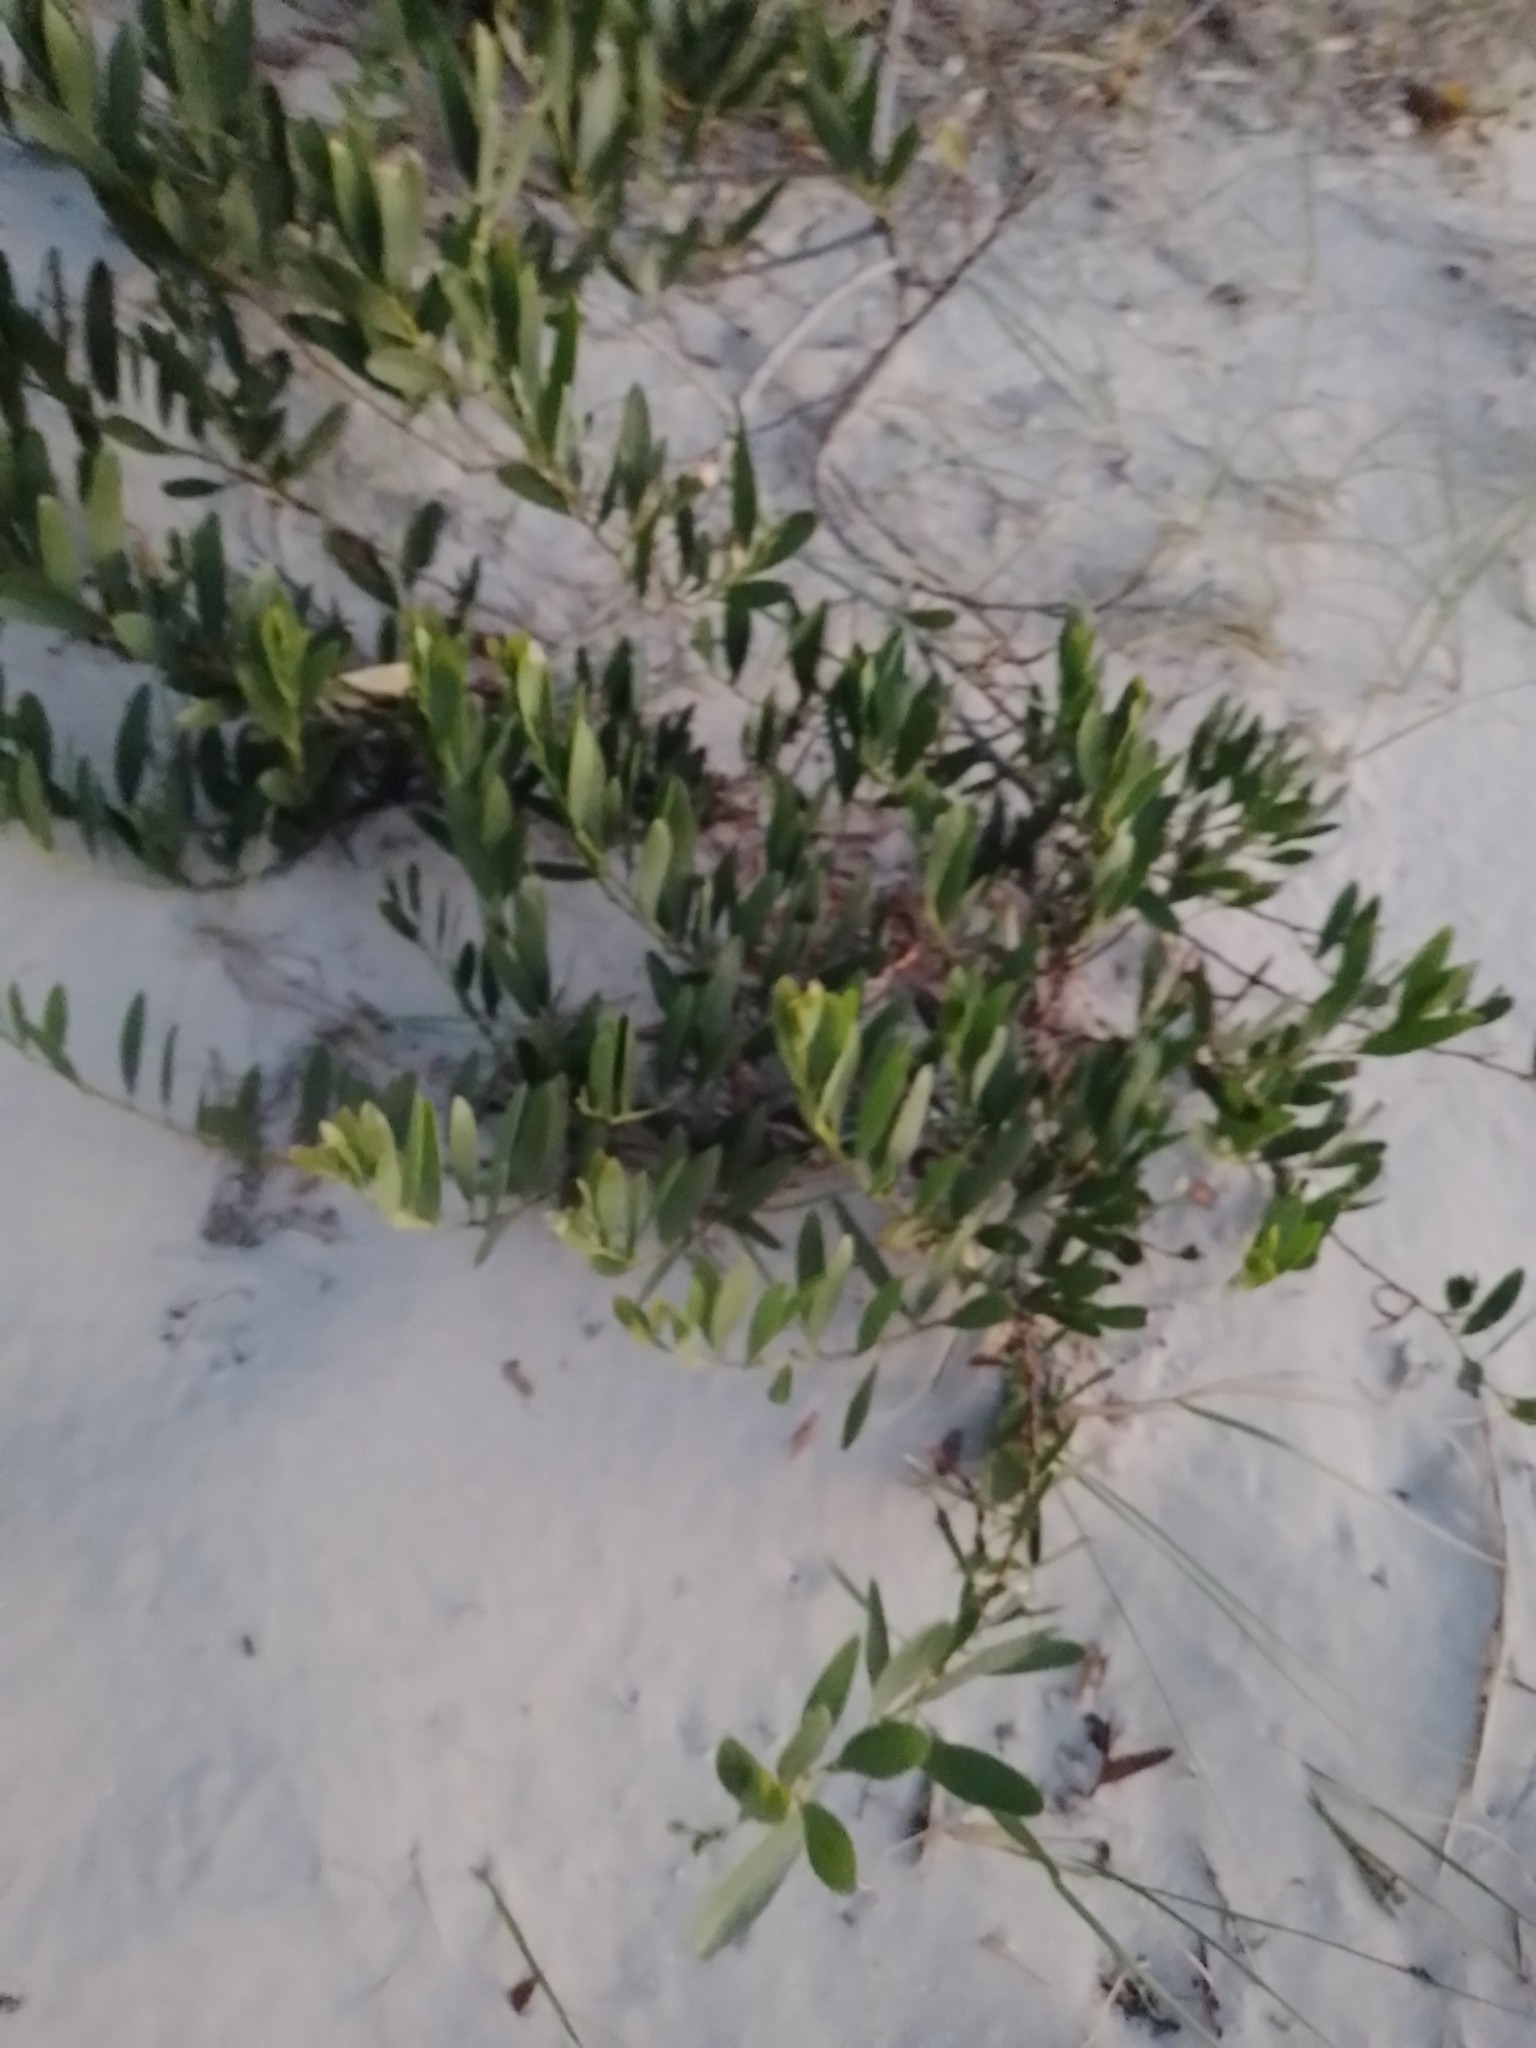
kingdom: Plantae
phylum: Tracheophyta
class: Magnoliopsida
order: Fabales
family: Fabaceae
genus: Acacia
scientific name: Acacia longifolia
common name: Sydney golden wattle
